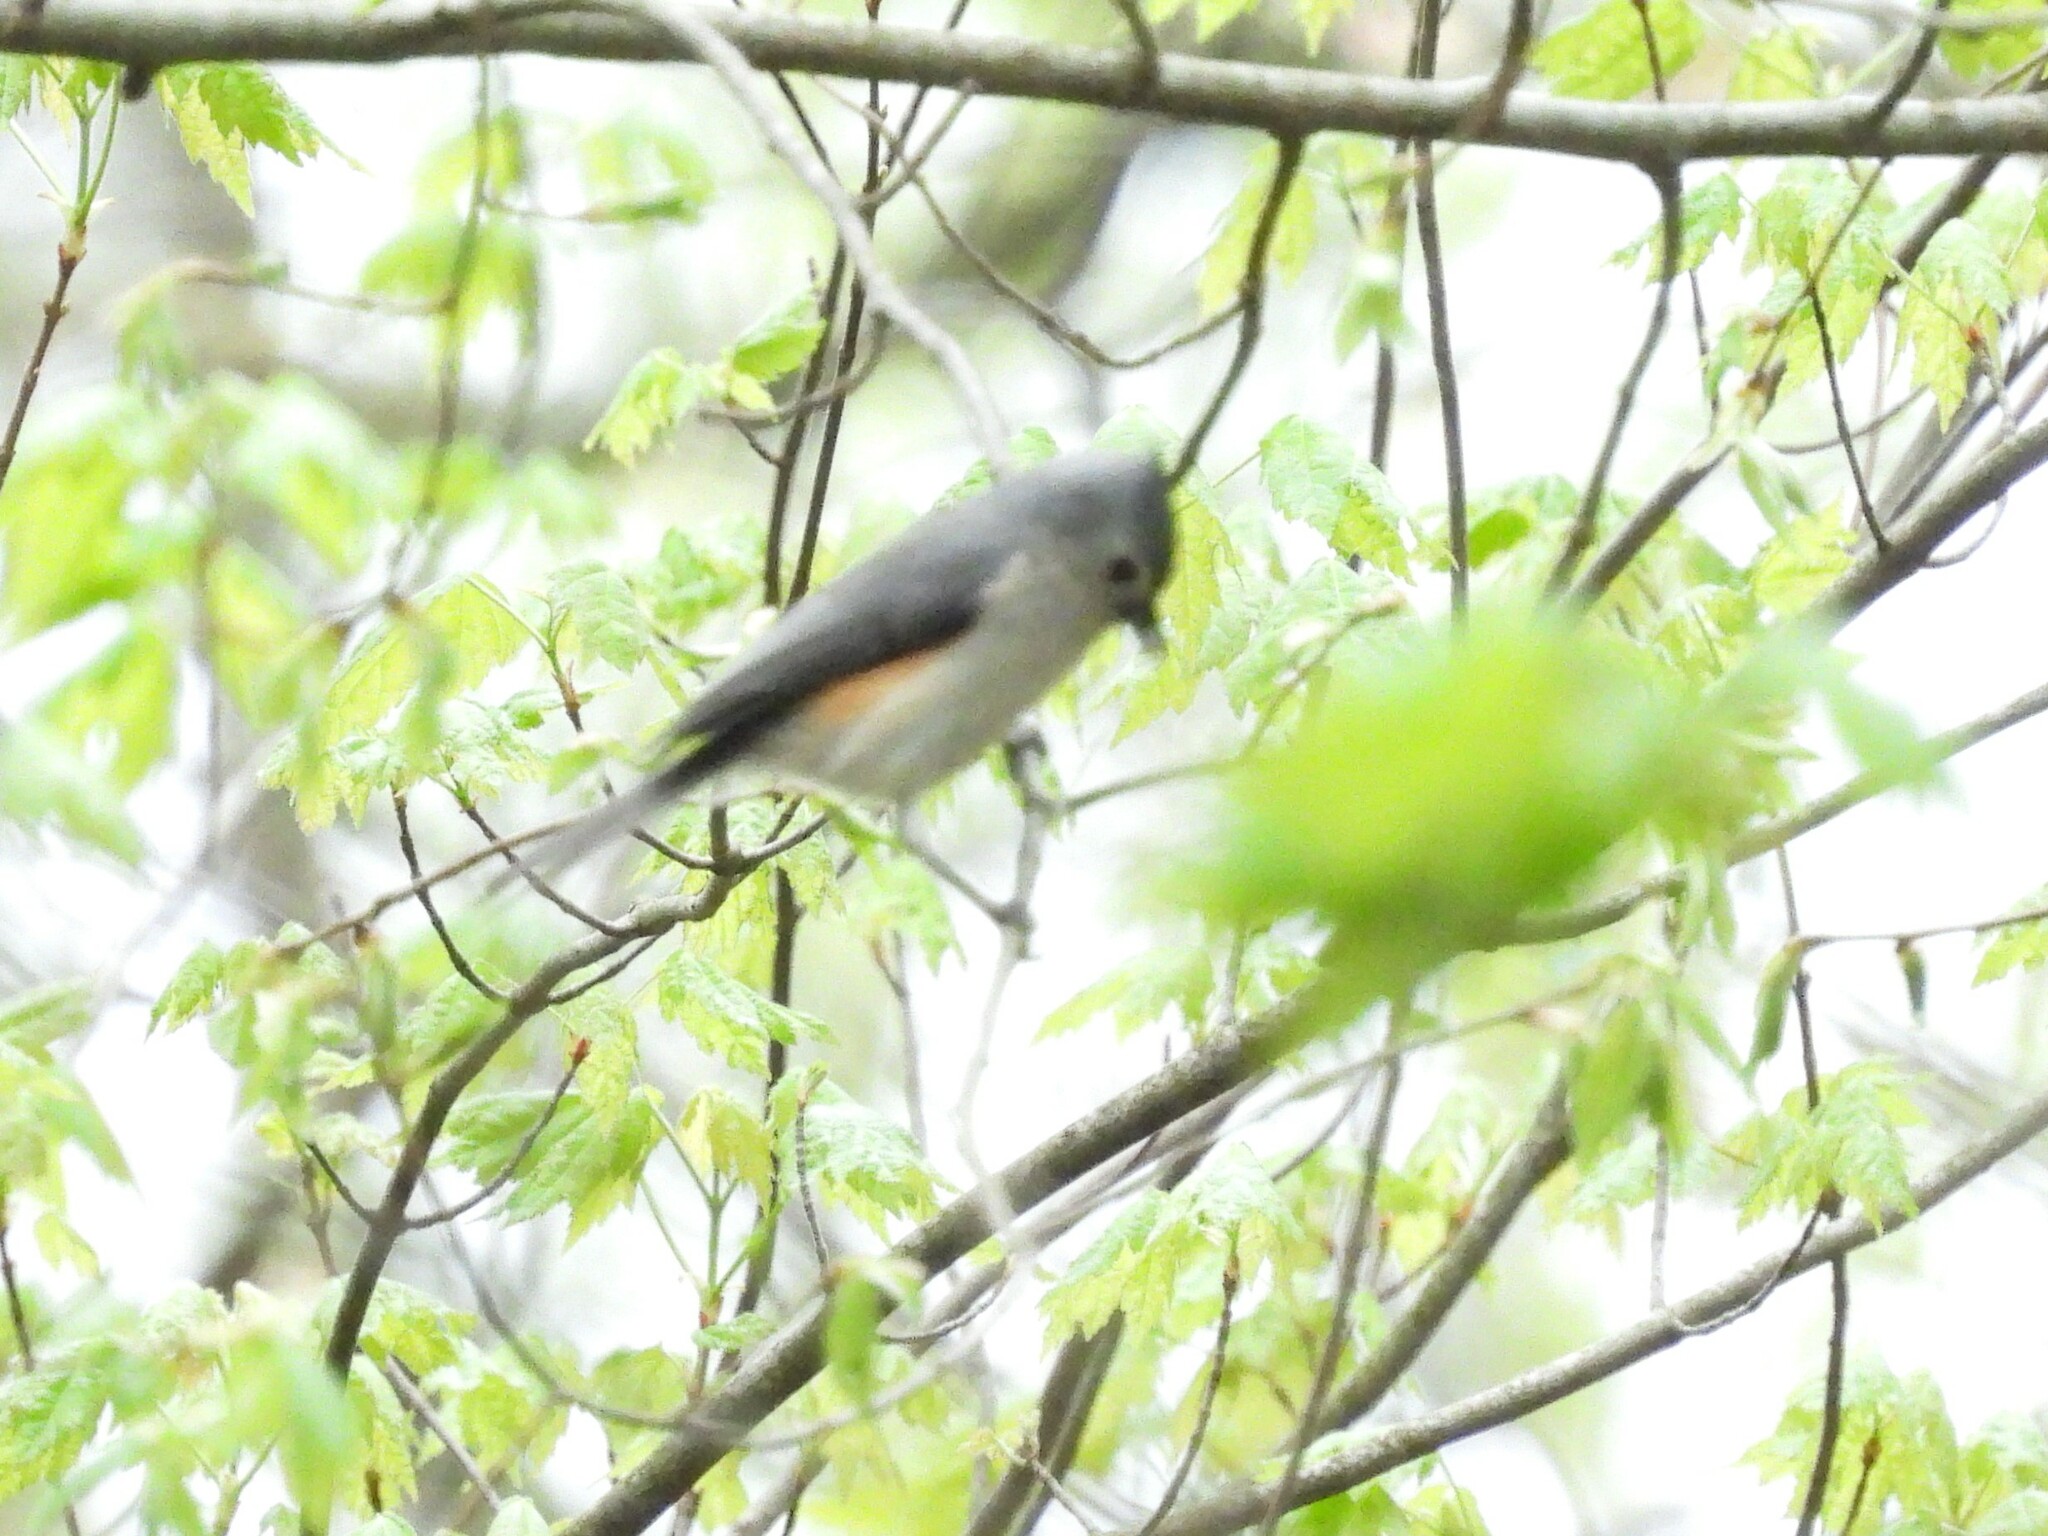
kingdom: Animalia
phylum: Chordata
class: Aves
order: Passeriformes
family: Paridae
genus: Baeolophus
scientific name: Baeolophus bicolor
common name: Tufted titmouse
